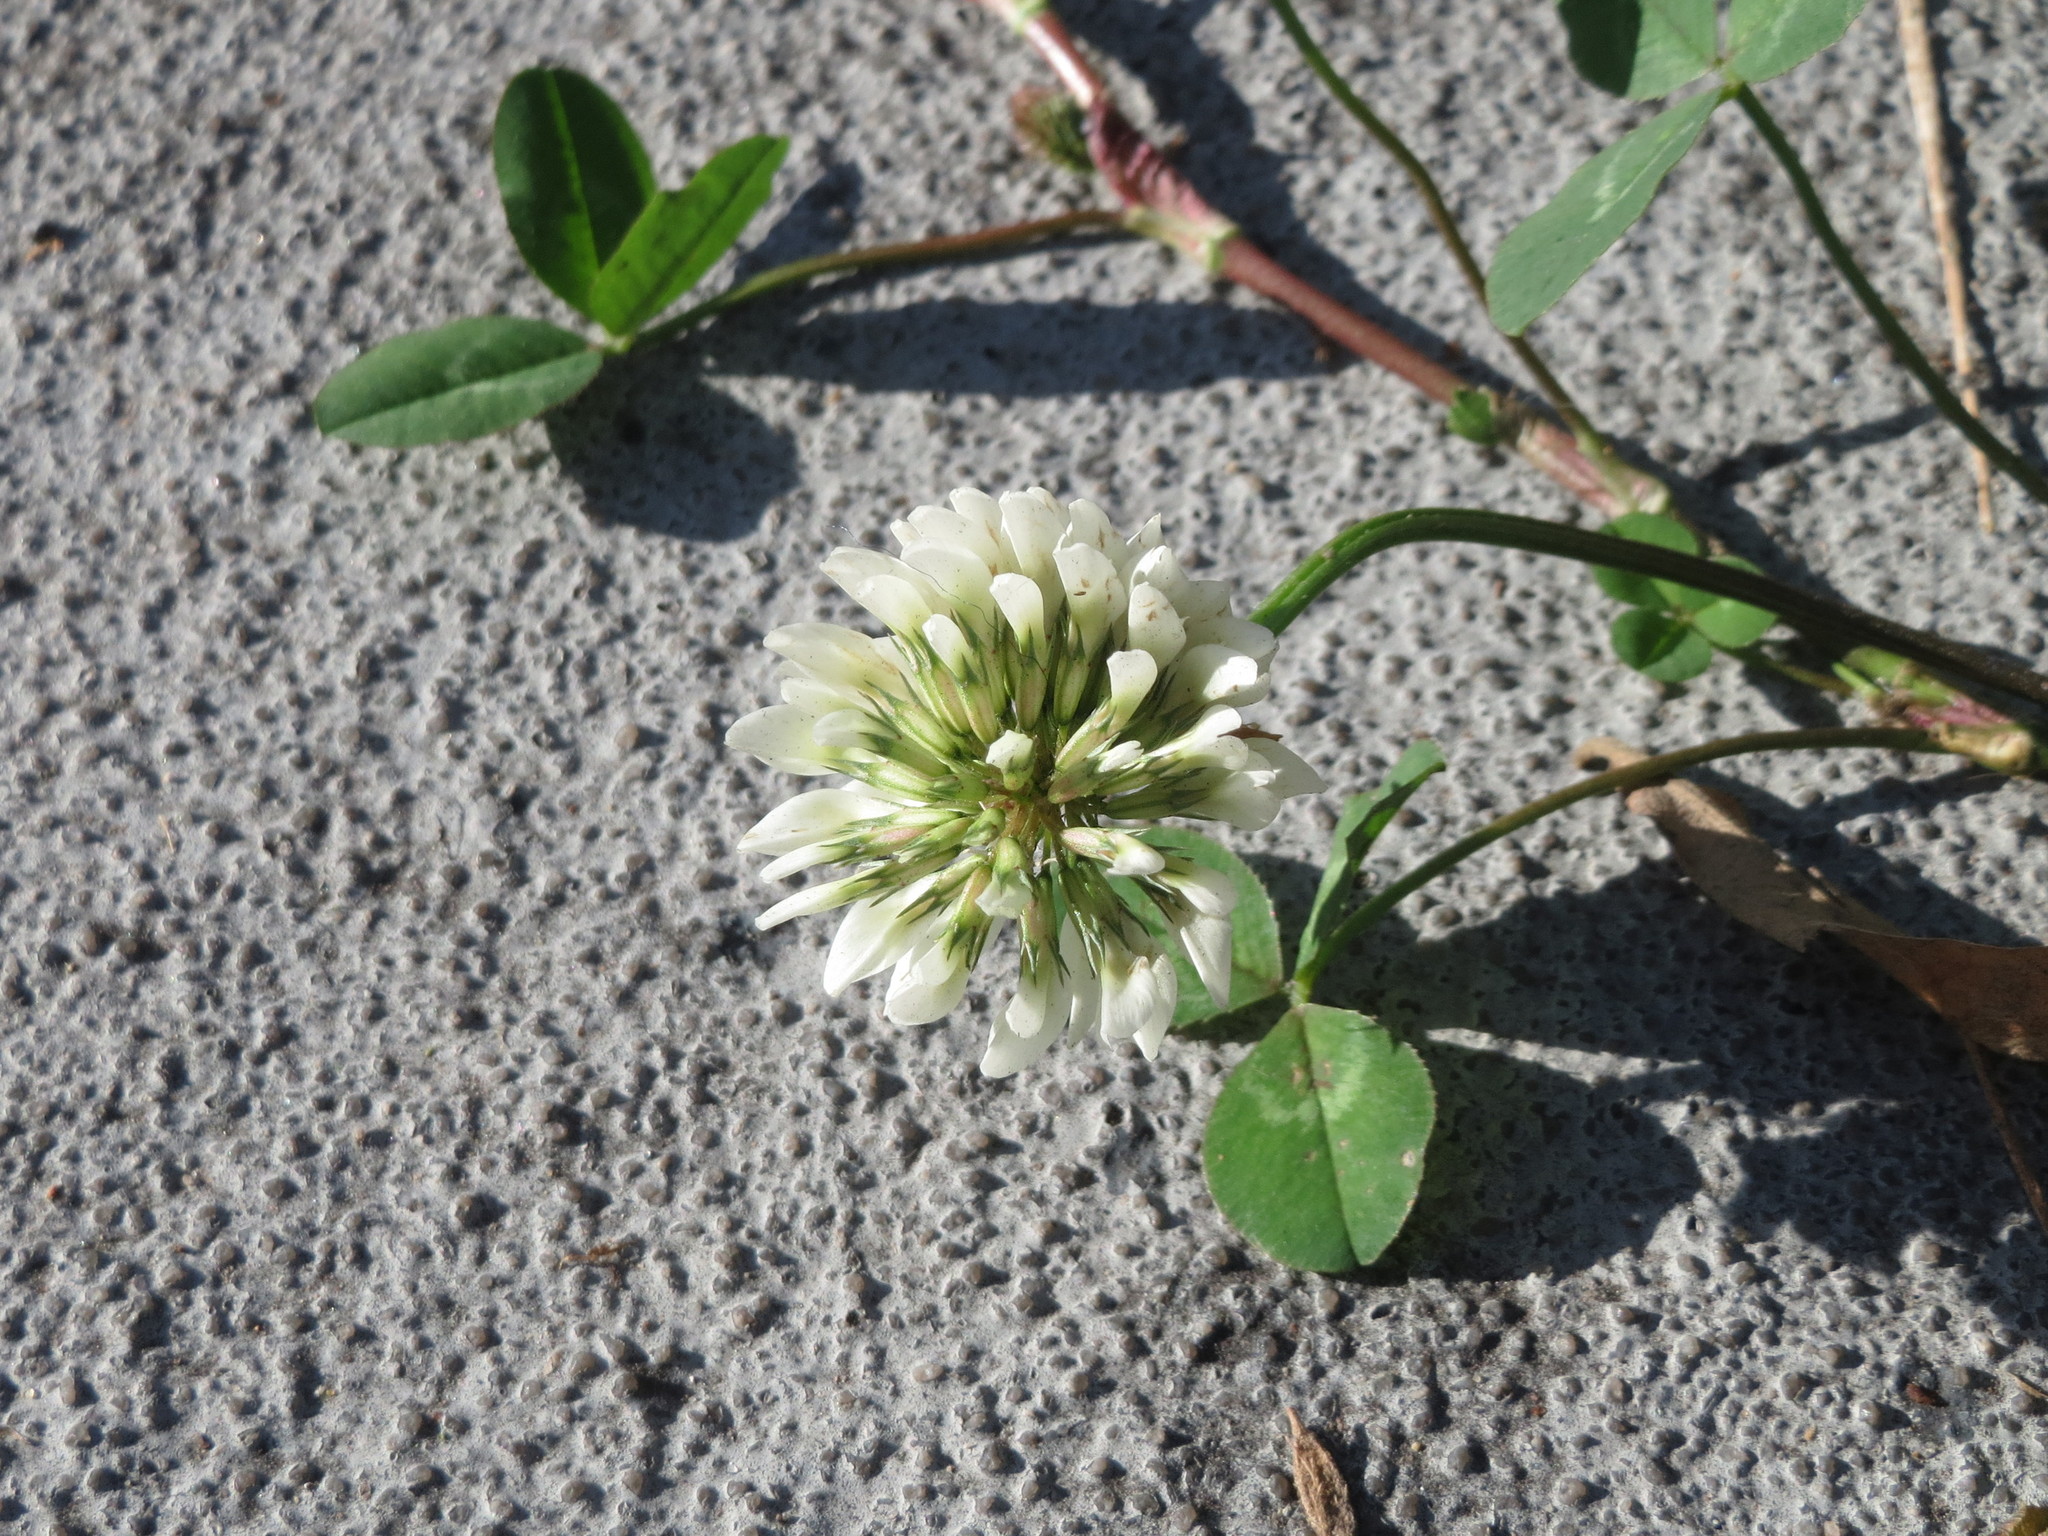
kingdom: Plantae
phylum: Tracheophyta
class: Magnoliopsida
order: Fabales
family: Fabaceae
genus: Trifolium
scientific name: Trifolium repens
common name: White clover
